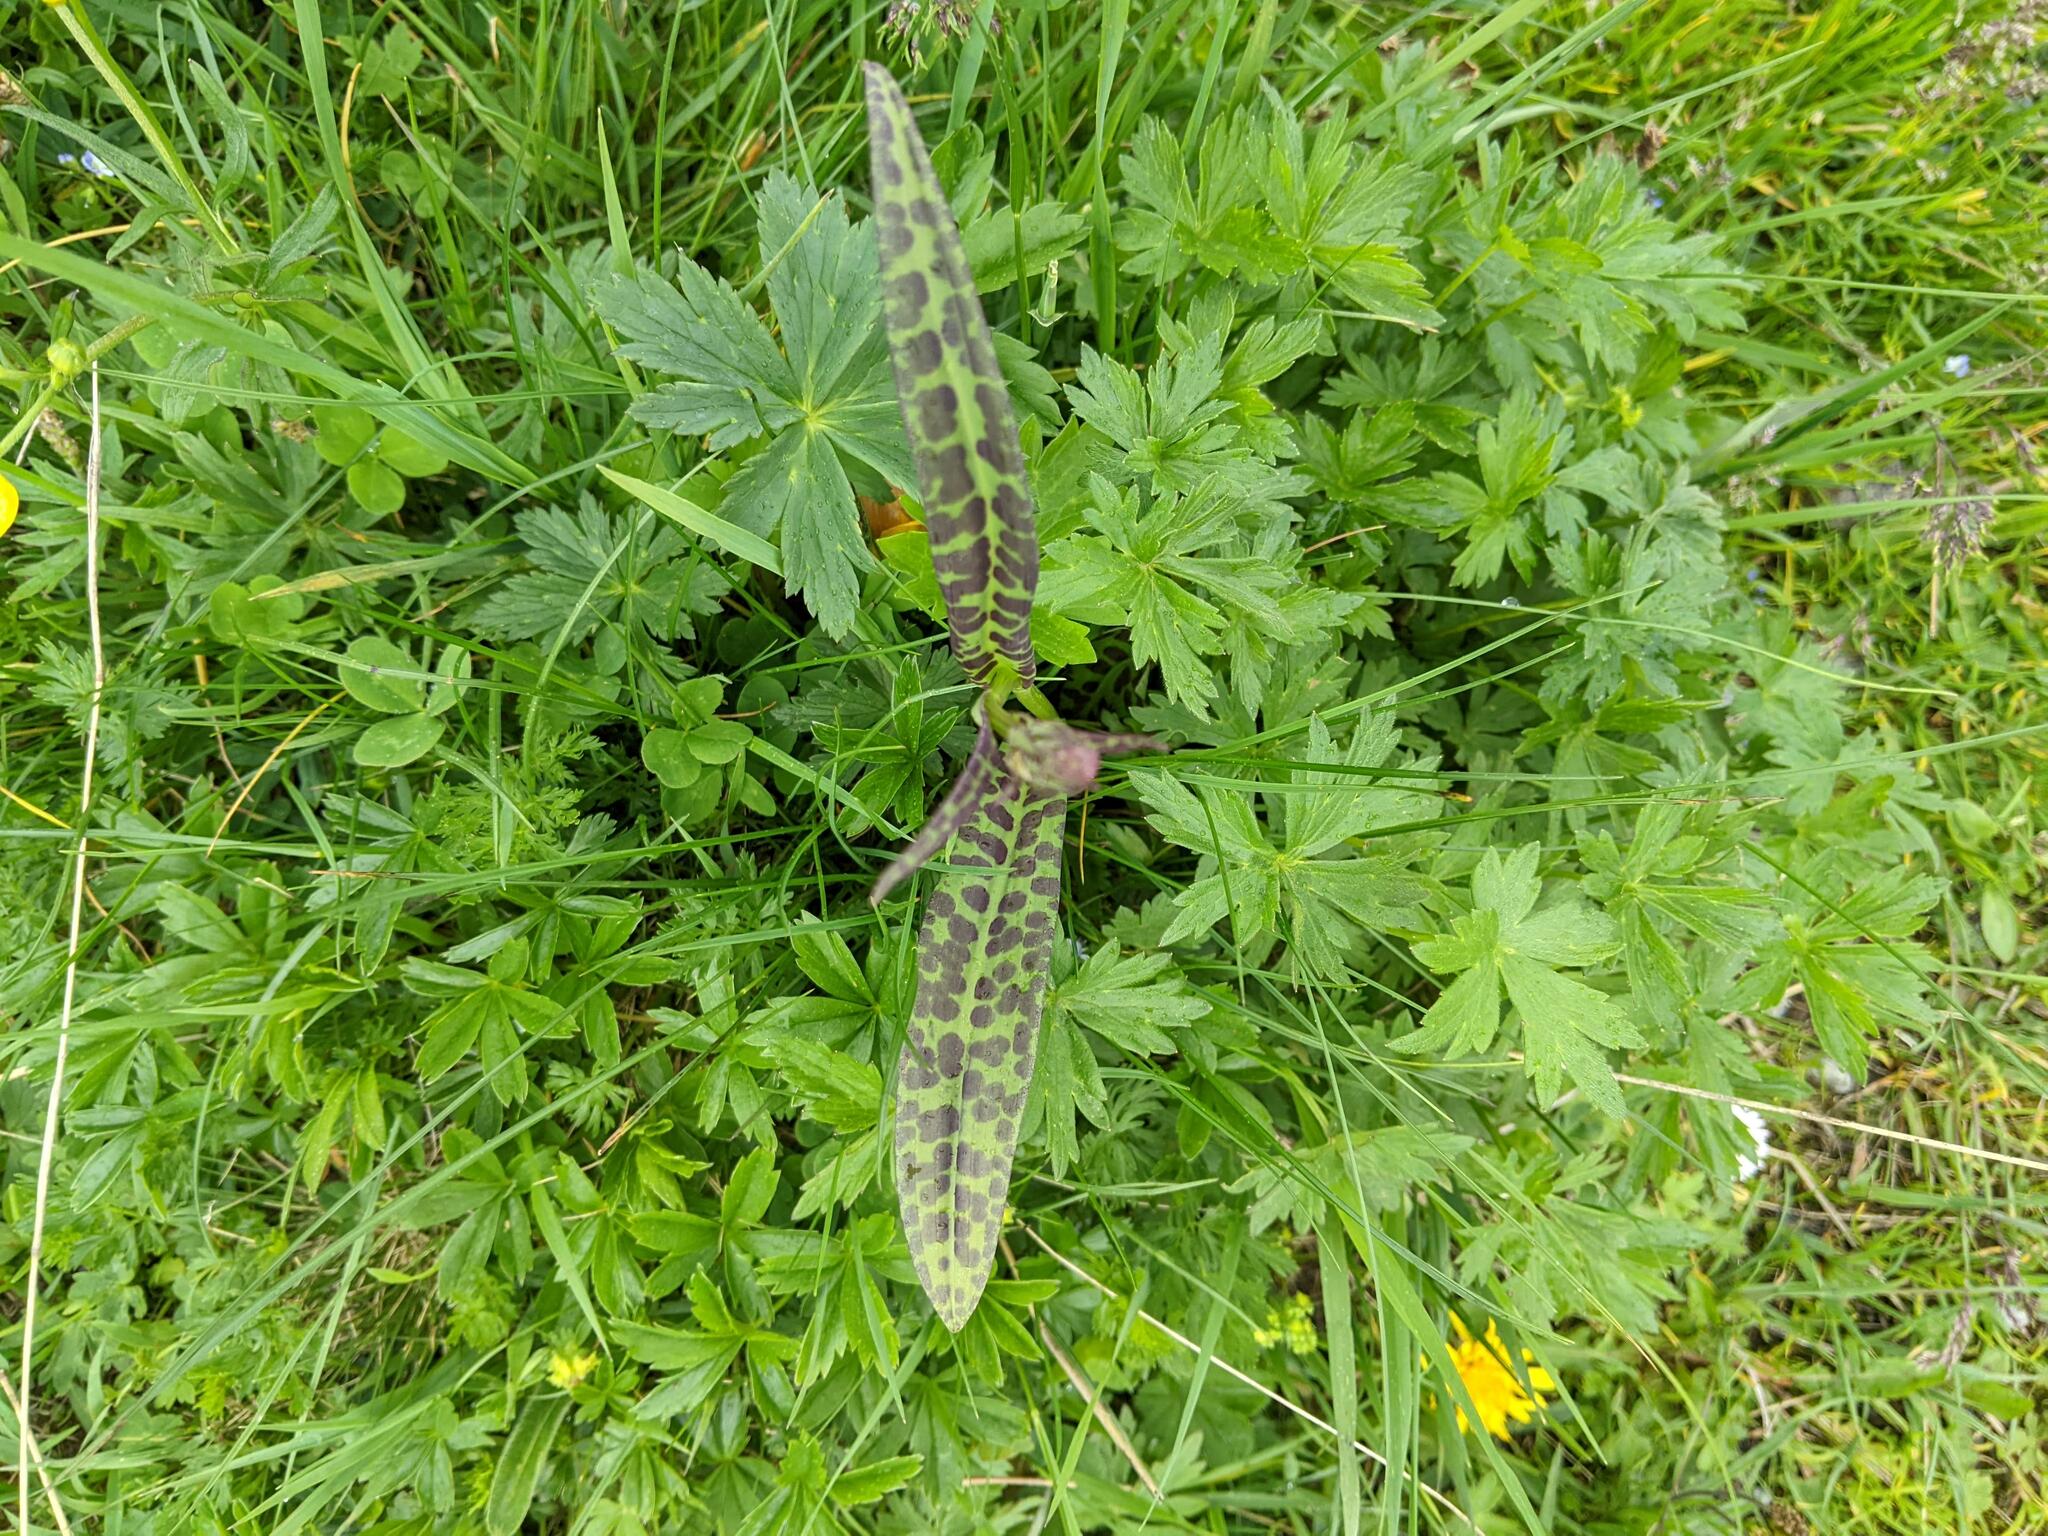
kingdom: Plantae
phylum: Tracheophyta
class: Liliopsida
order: Asparagales
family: Orchidaceae
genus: Dactylorhiza
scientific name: Dactylorhiza maculata
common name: Heath spotted-orchid
